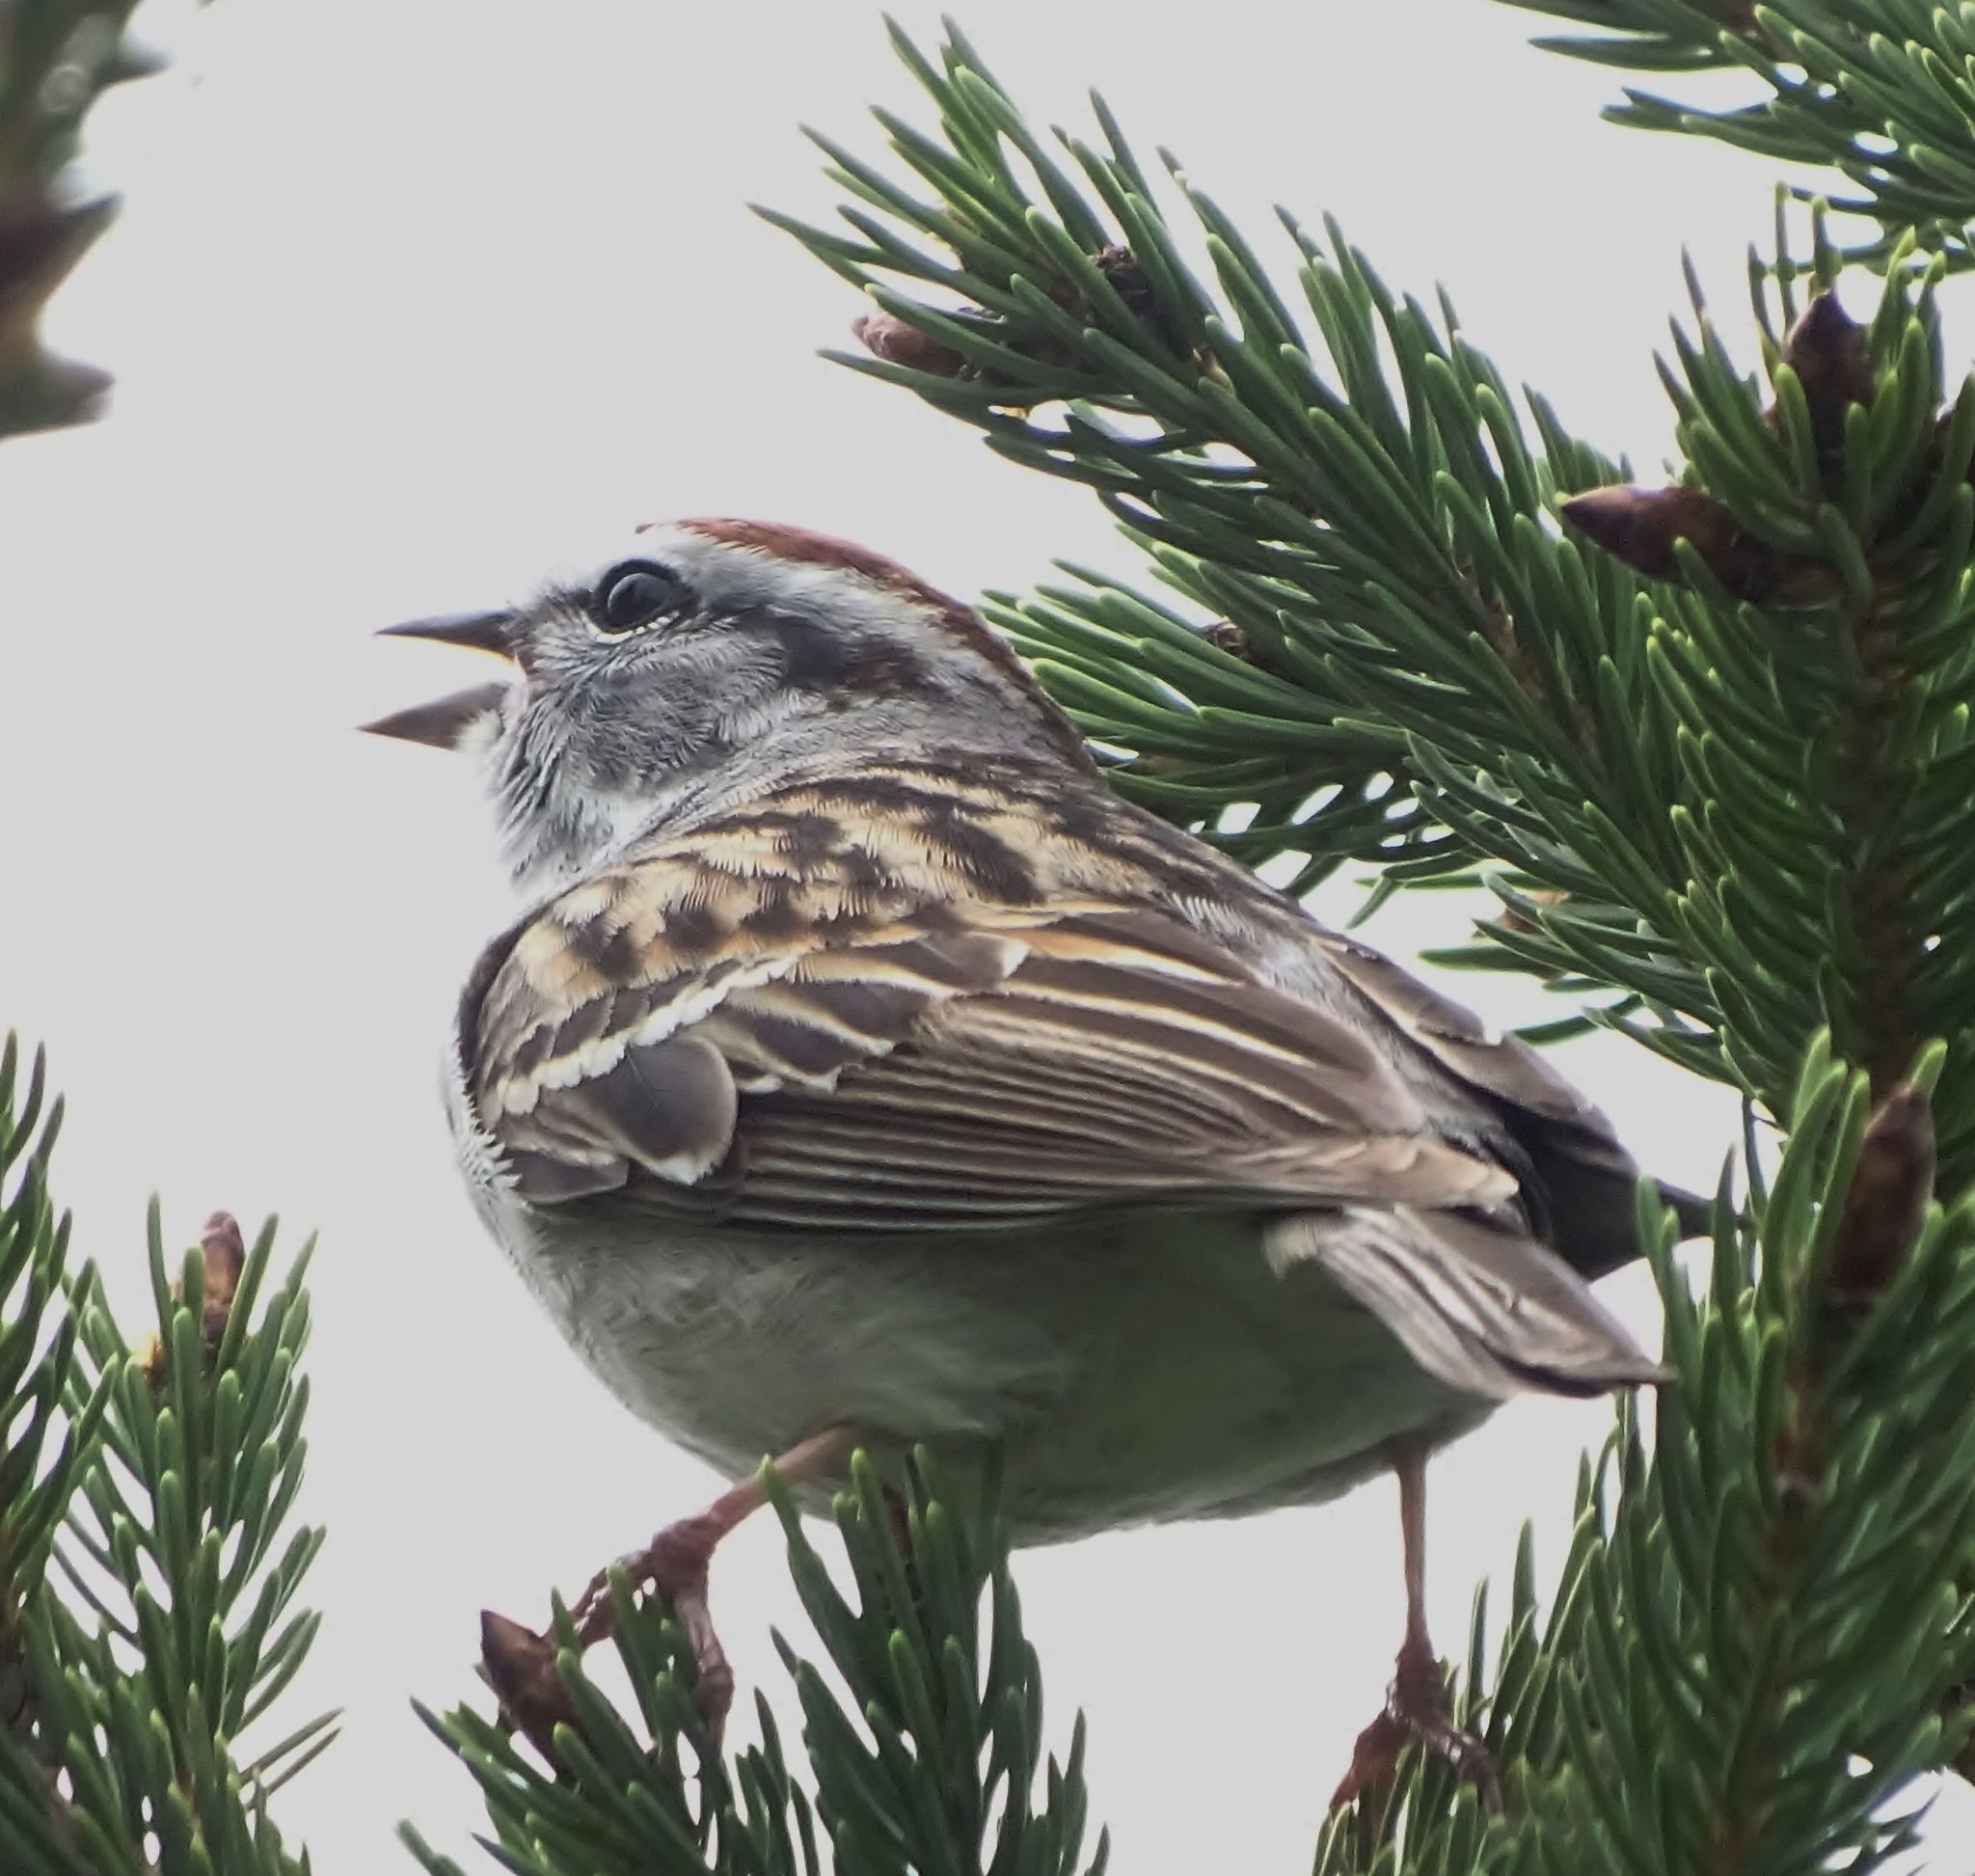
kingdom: Animalia
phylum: Chordata
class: Aves
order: Passeriformes
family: Passerellidae
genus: Spizella
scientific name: Spizella passerina
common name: Chipping sparrow
